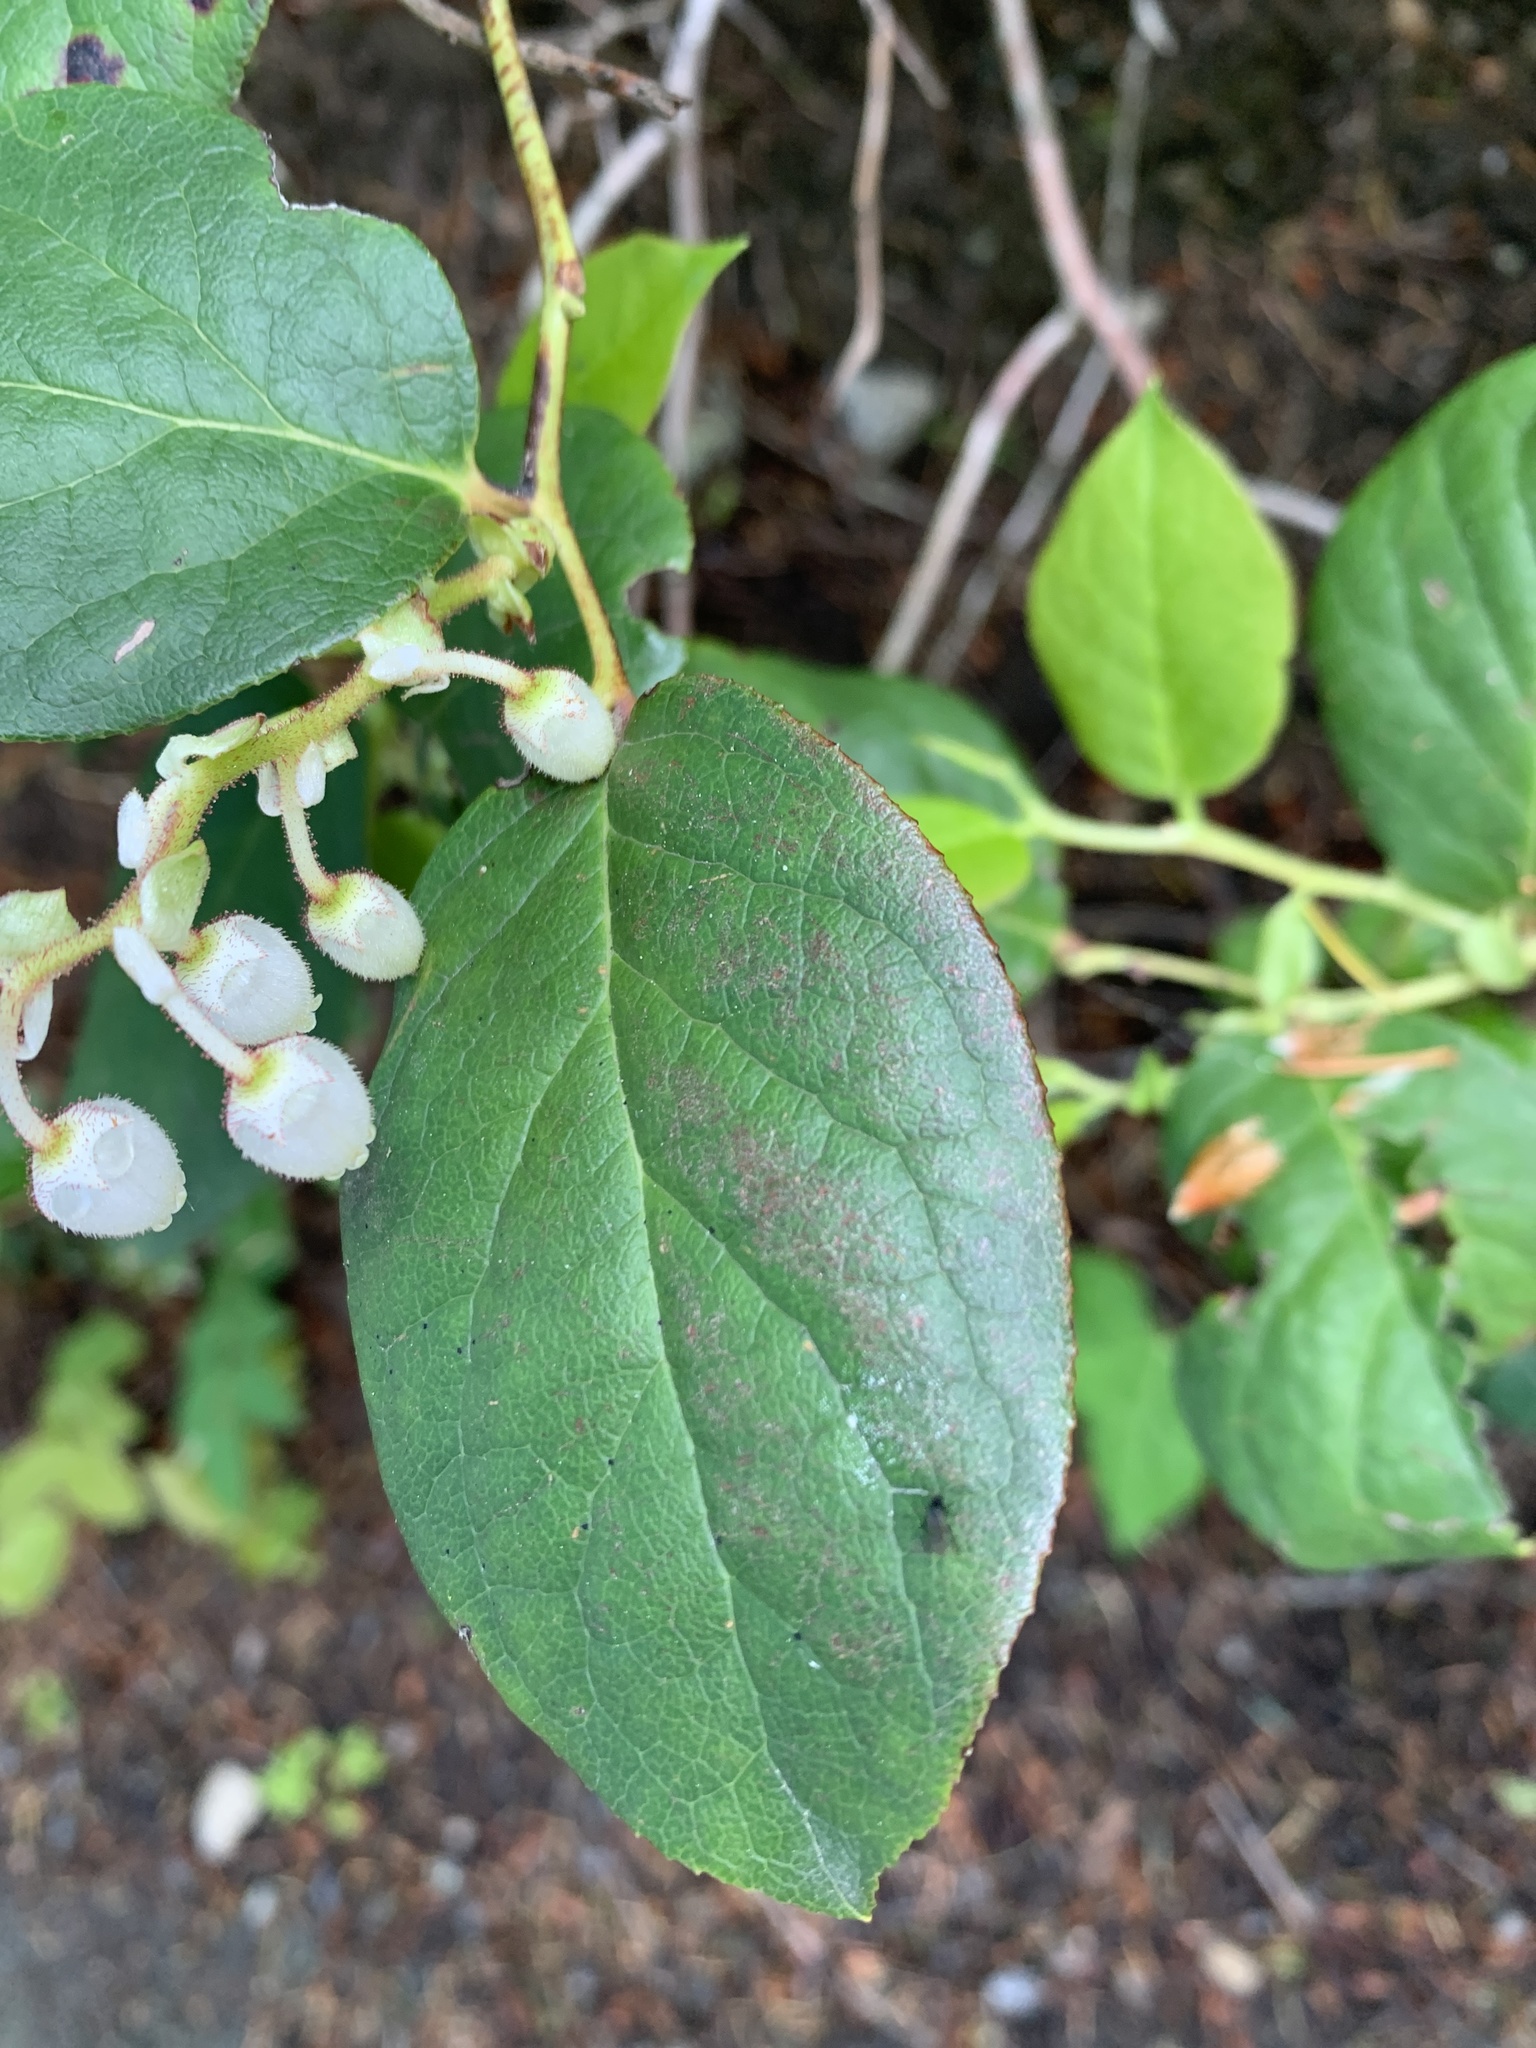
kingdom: Plantae
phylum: Tracheophyta
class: Magnoliopsida
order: Ericales
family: Ericaceae
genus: Gaultheria
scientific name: Gaultheria shallon
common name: Shallon
